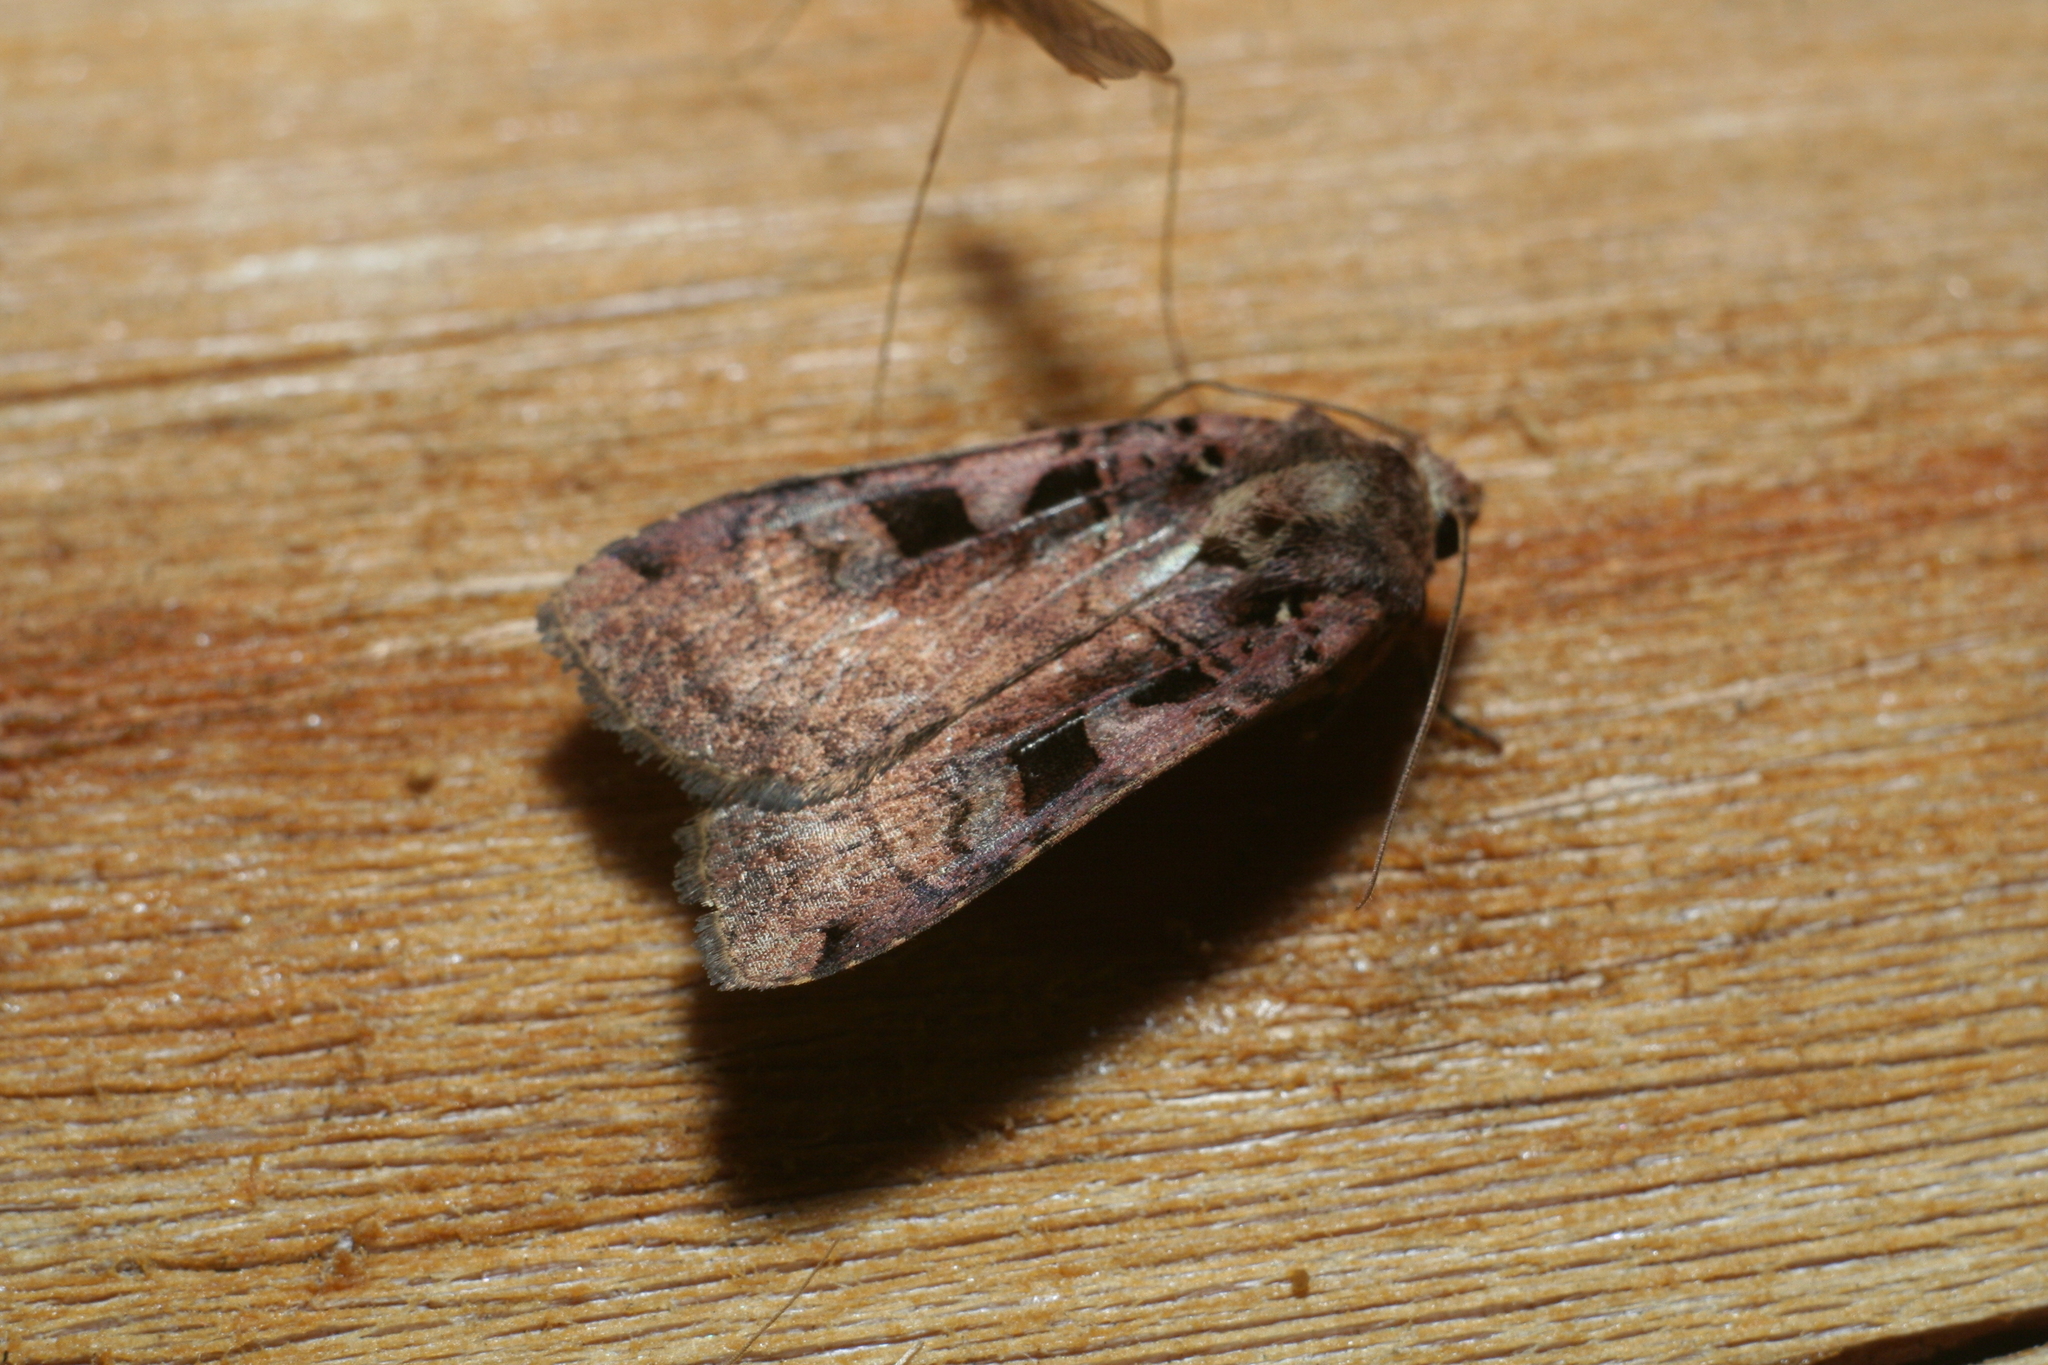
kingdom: Animalia
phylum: Arthropoda
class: Insecta
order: Lepidoptera
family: Noctuidae
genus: Xestia
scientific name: Xestia ditrapezium
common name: Triple-spotted clay
